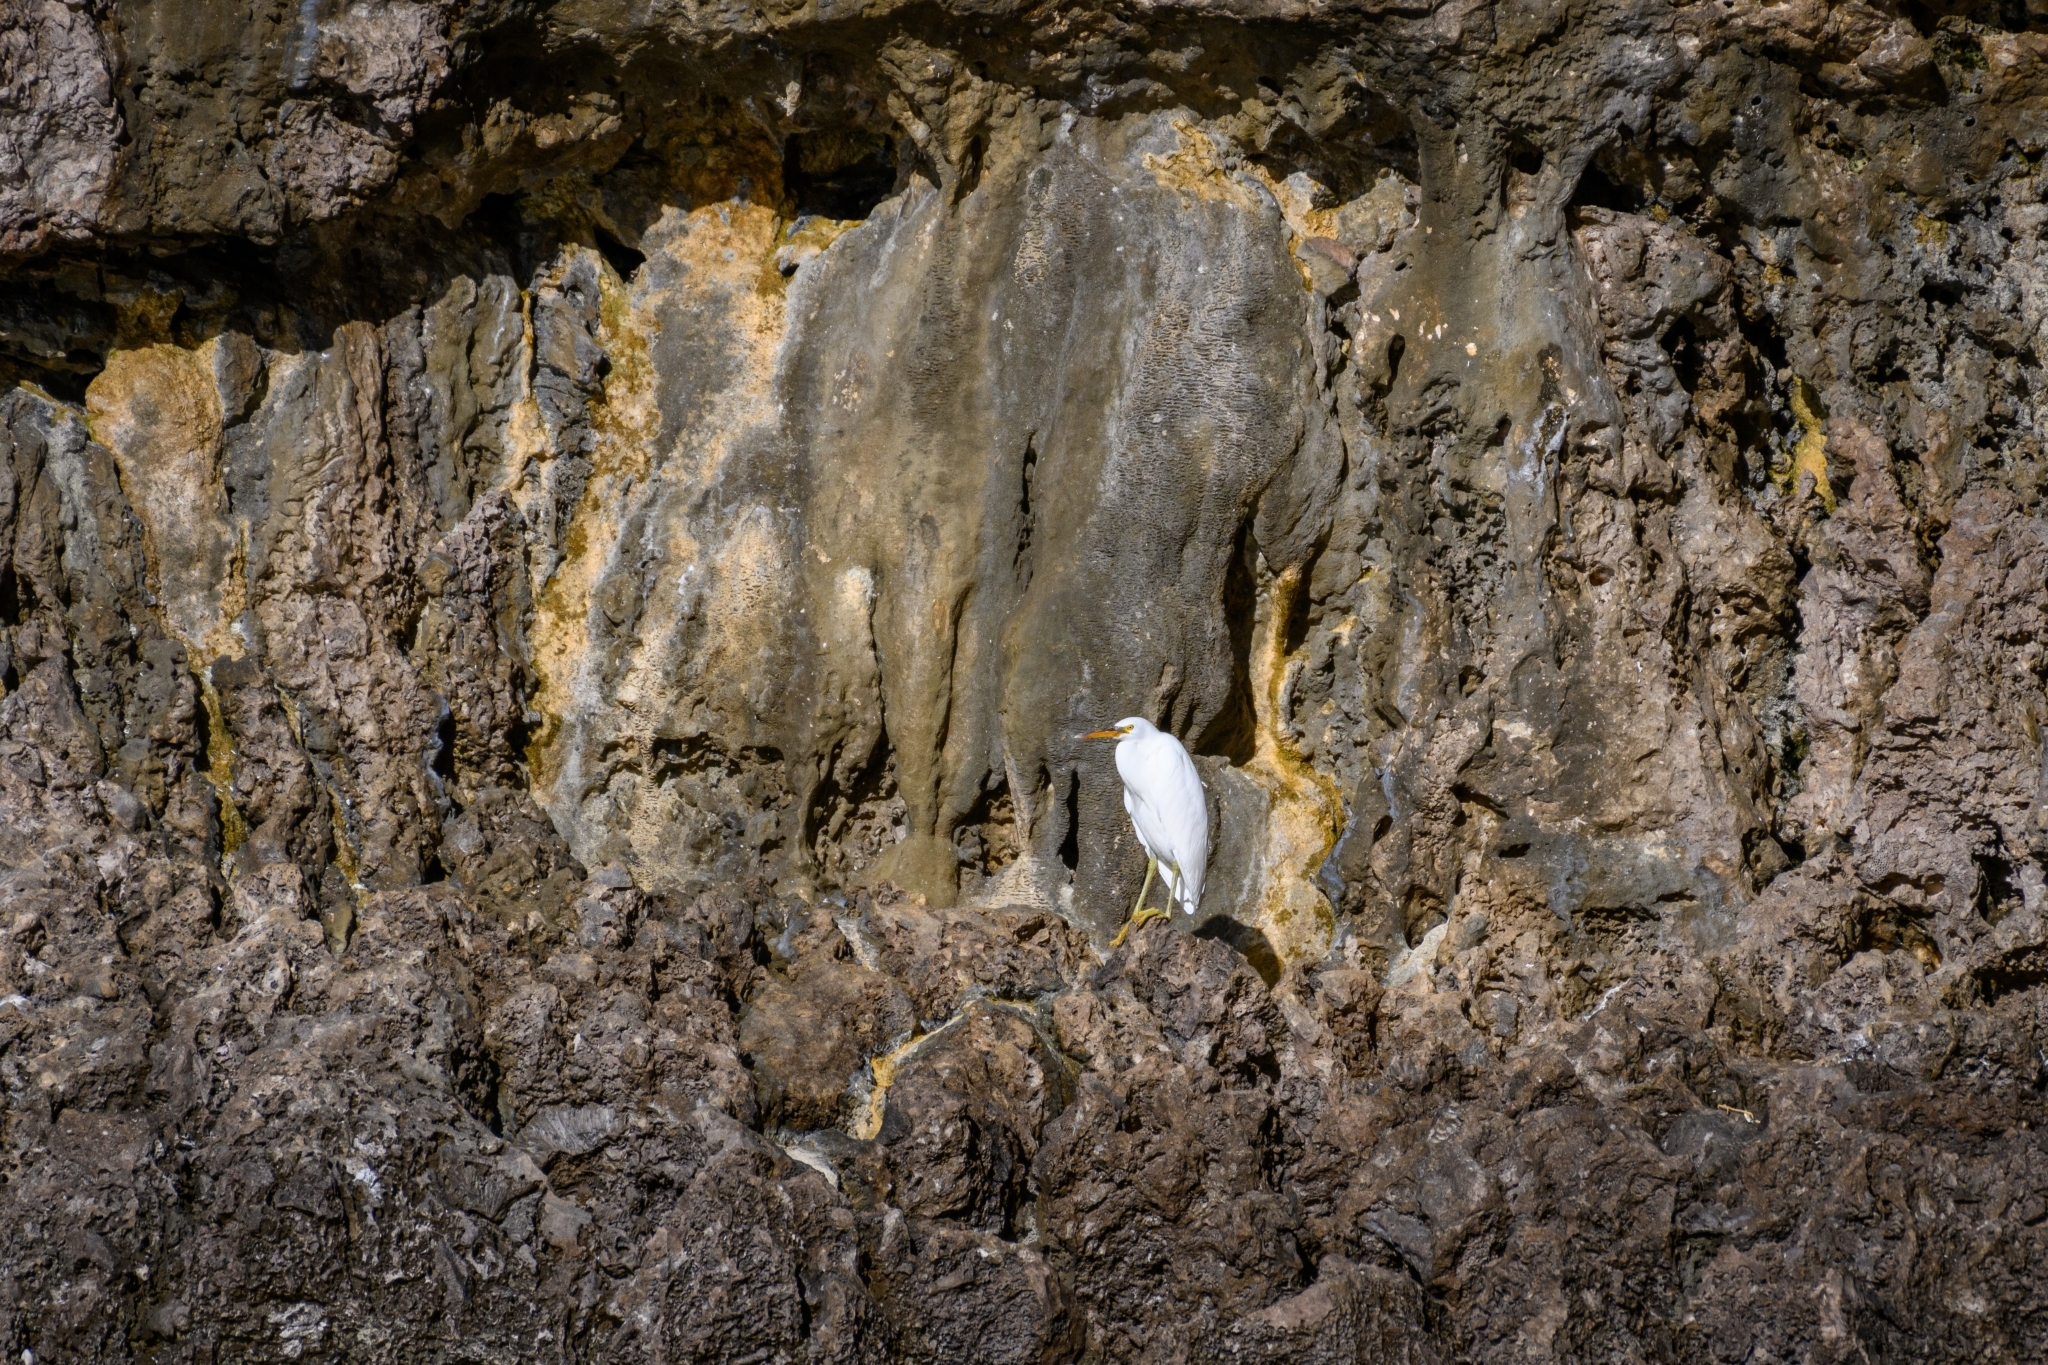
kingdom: Animalia
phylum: Chordata
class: Aves
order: Pelecaniformes
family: Ardeidae
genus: Egretta
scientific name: Egretta sacra
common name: Pacific reef heron
